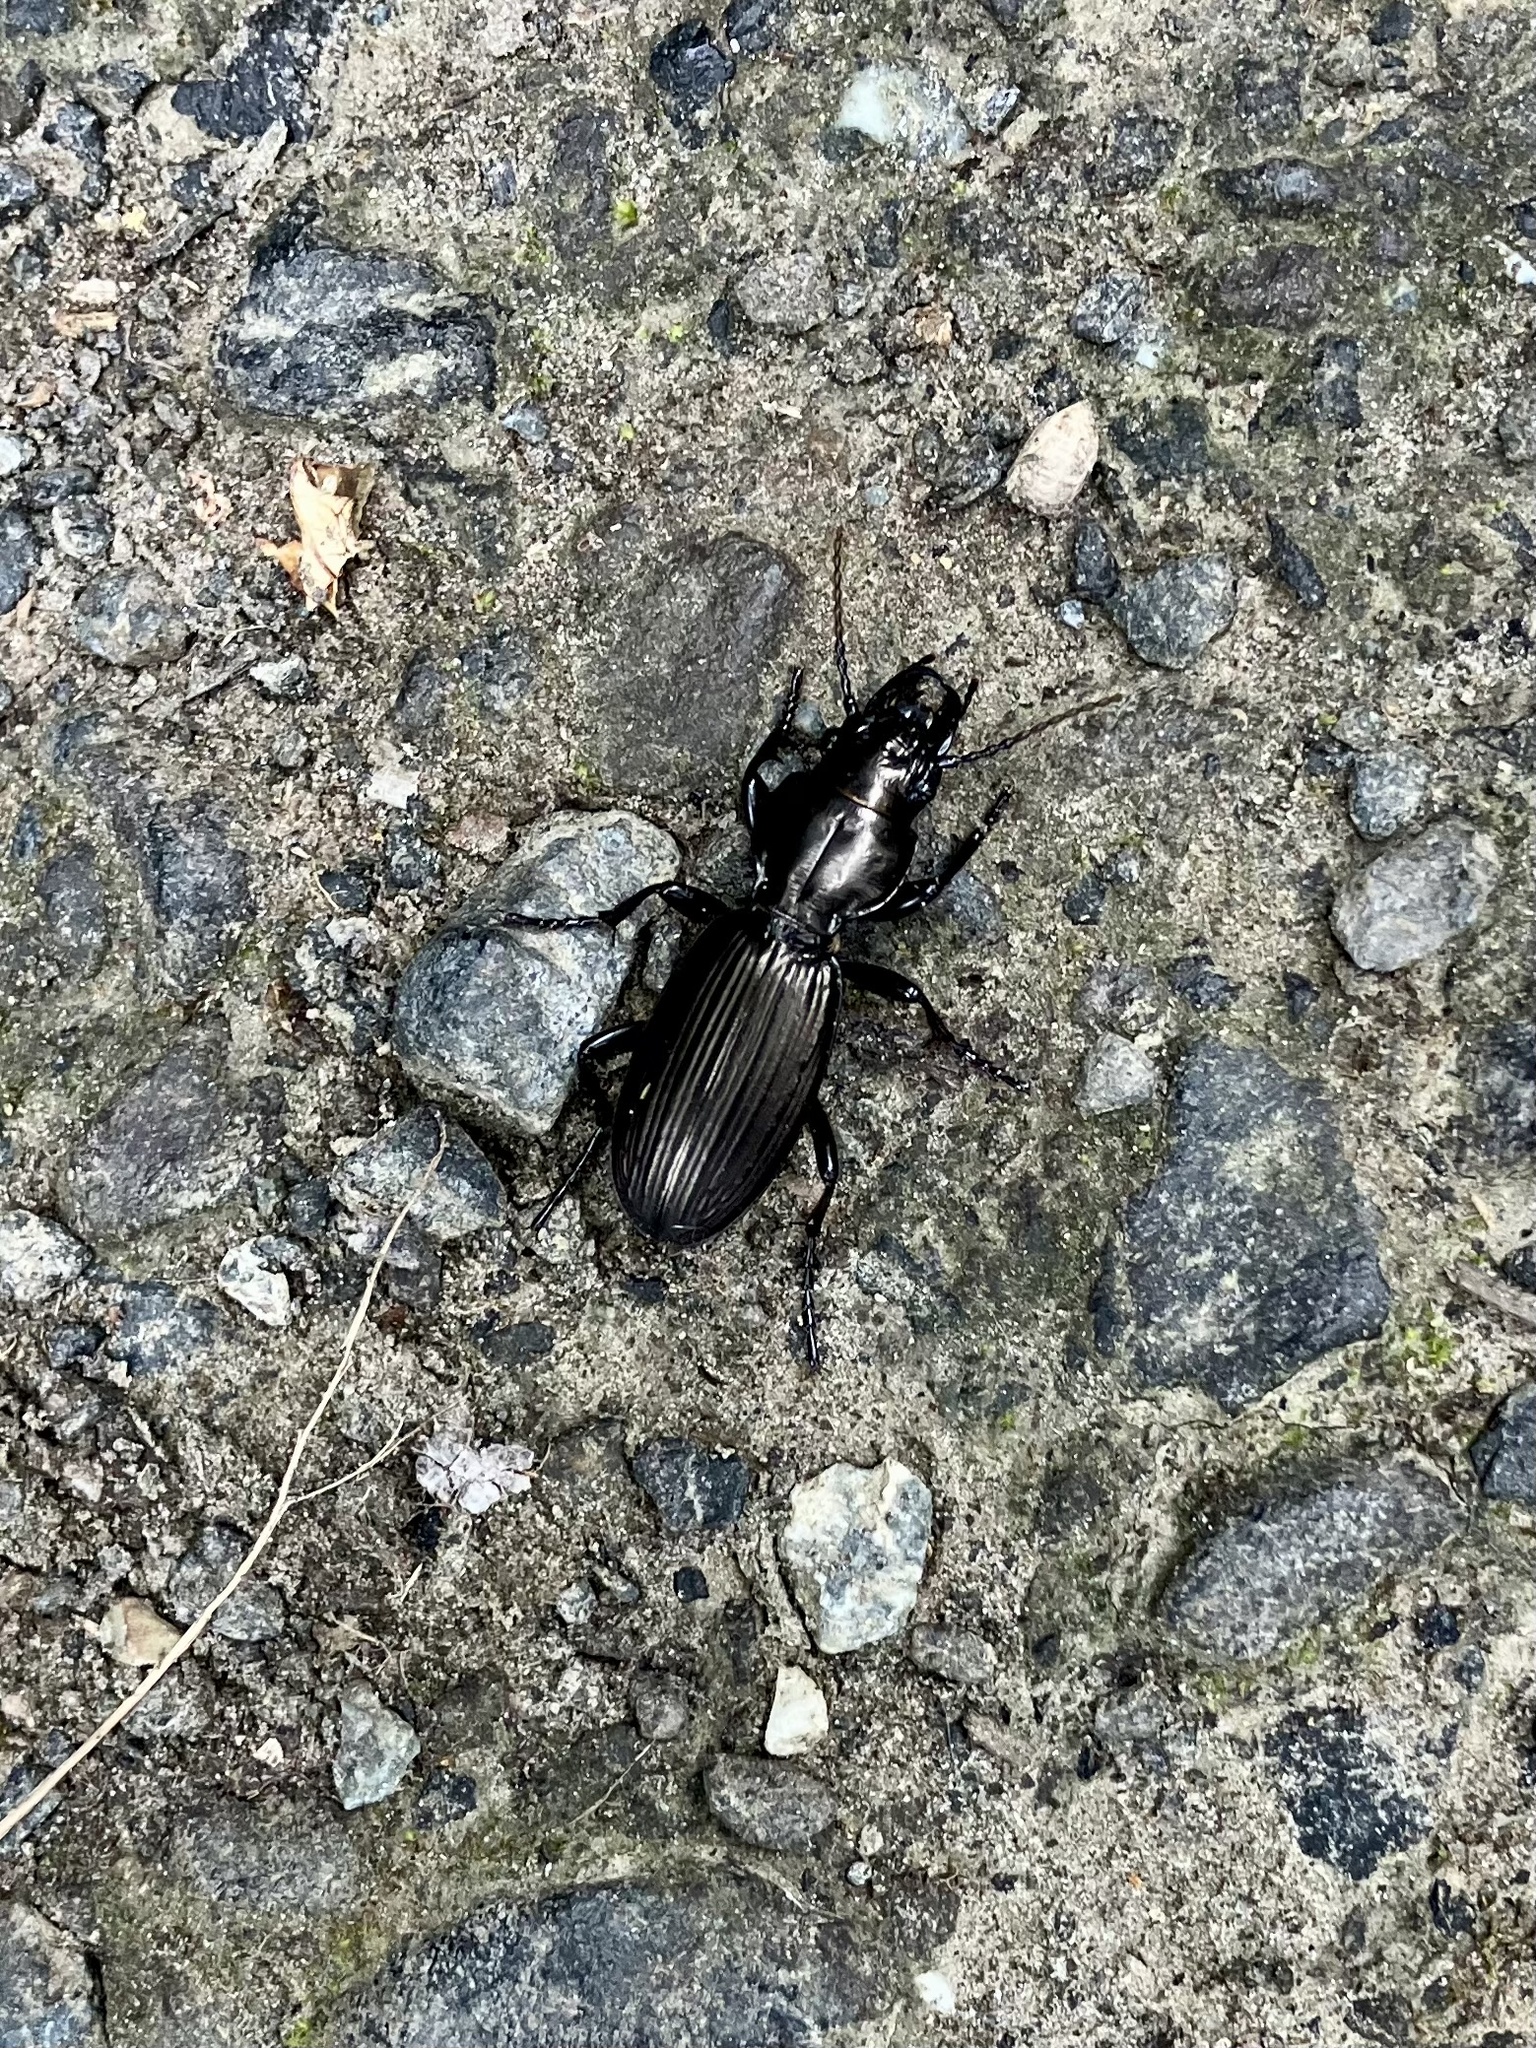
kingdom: Animalia
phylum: Arthropoda
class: Insecta
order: Coleoptera
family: Carabidae
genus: Mecodema
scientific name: Mecodema alternans
